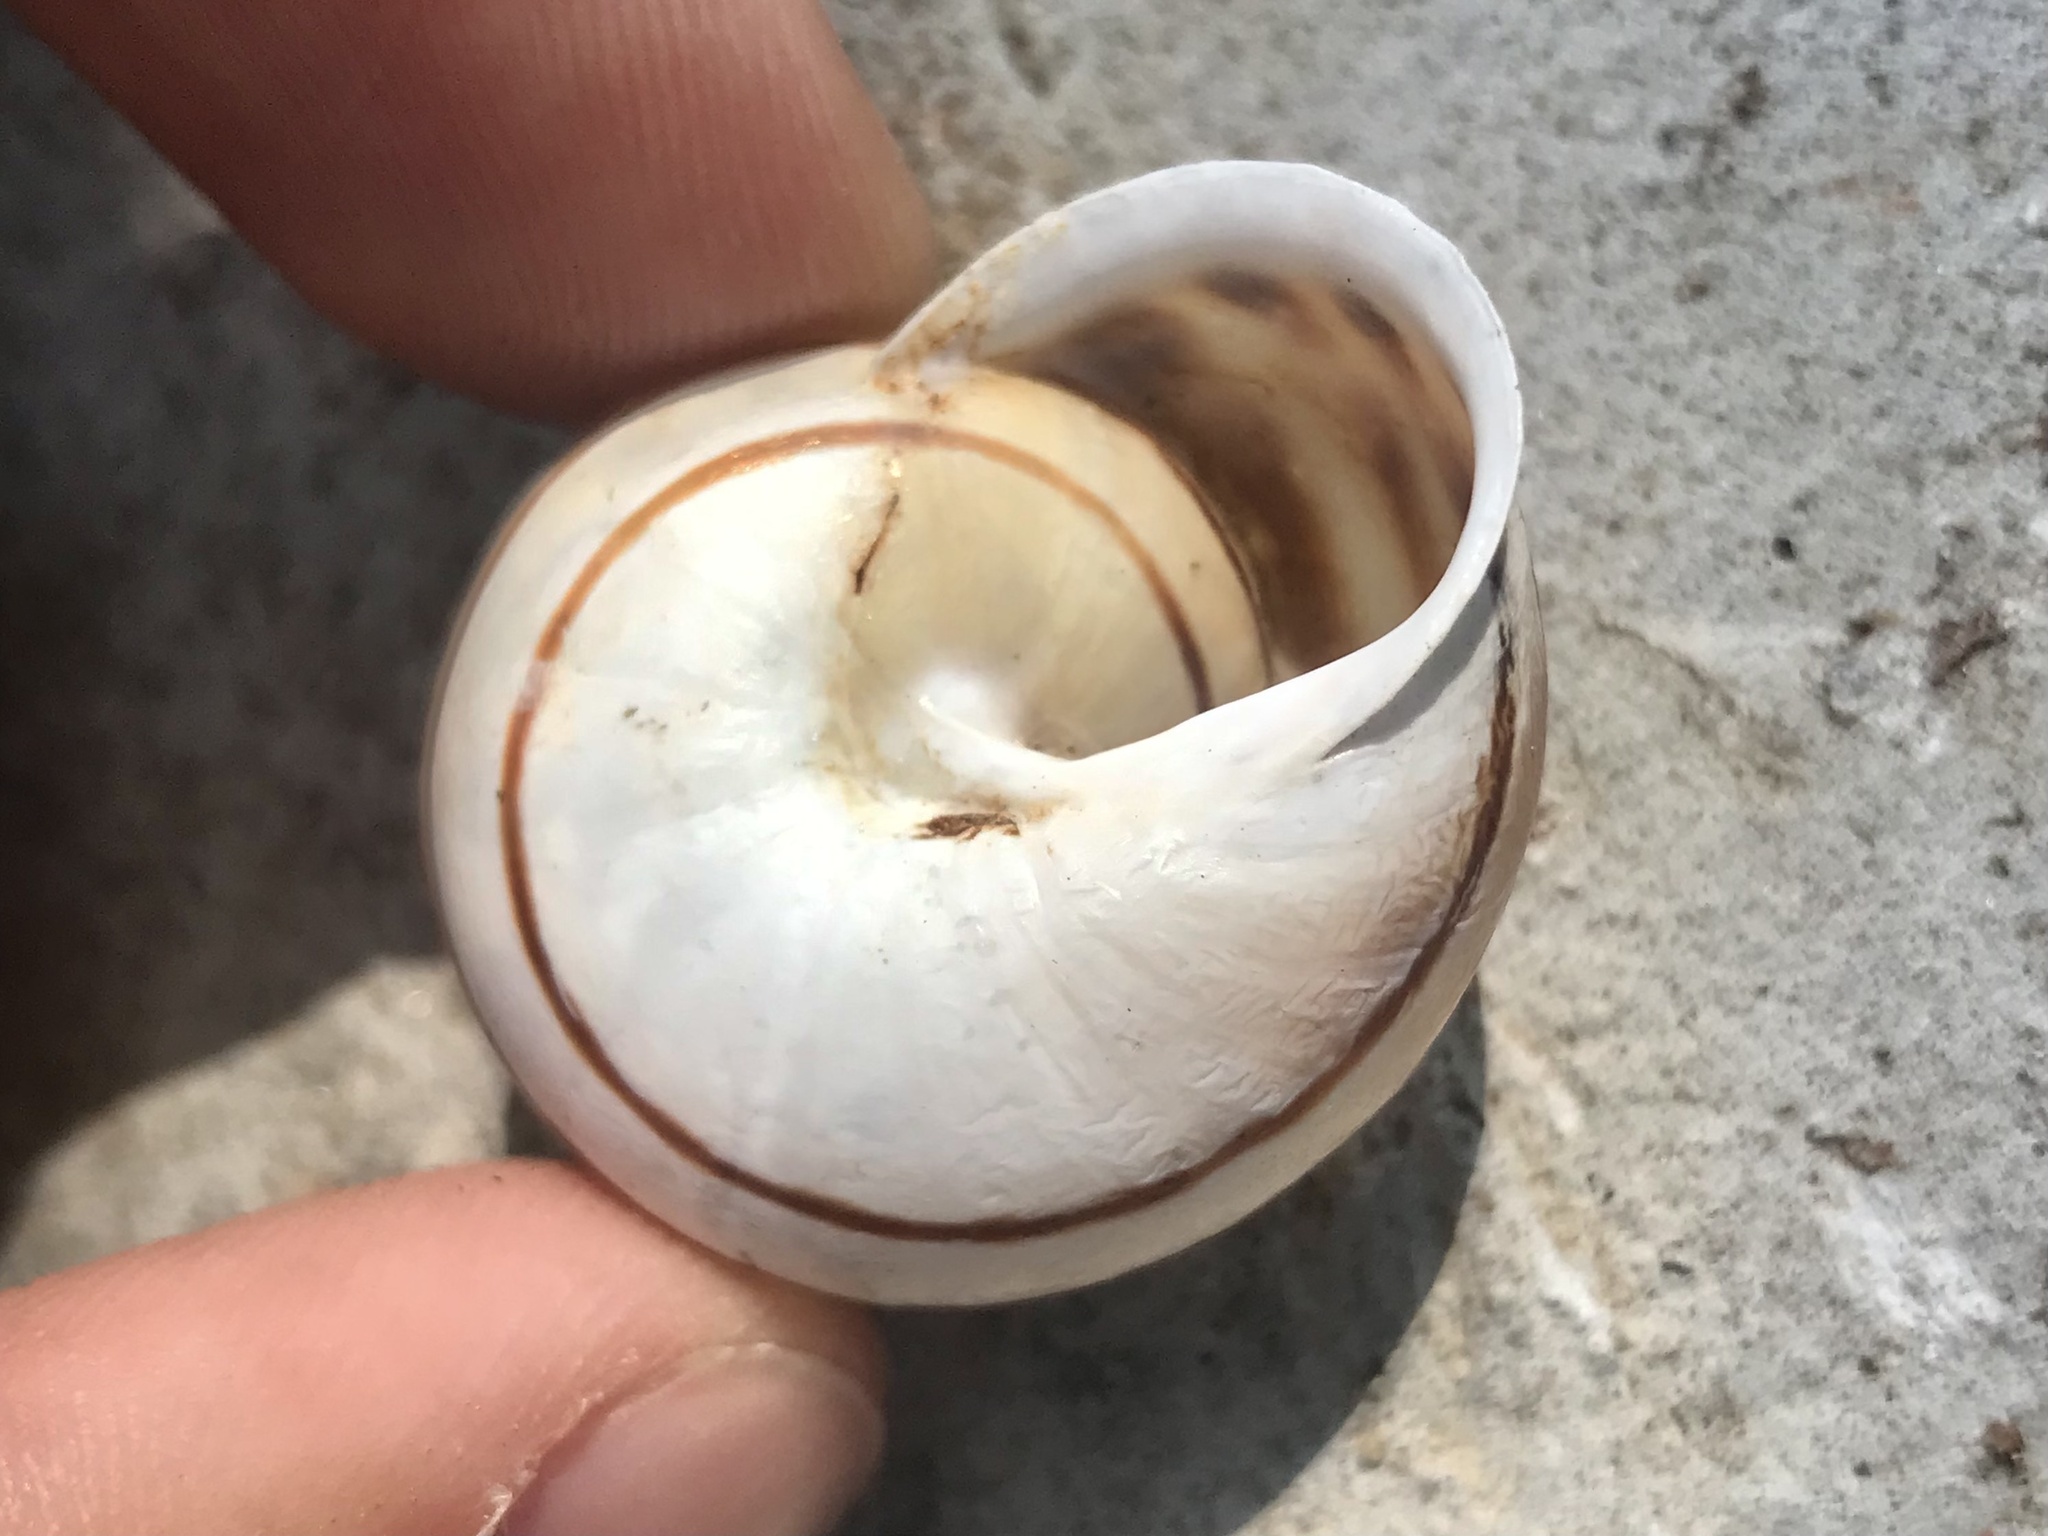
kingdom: Animalia
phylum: Mollusca
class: Gastropoda
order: Stylommatophora
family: Helicidae
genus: Eobania
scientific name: Eobania vermiculata
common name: Chocolateband snail
